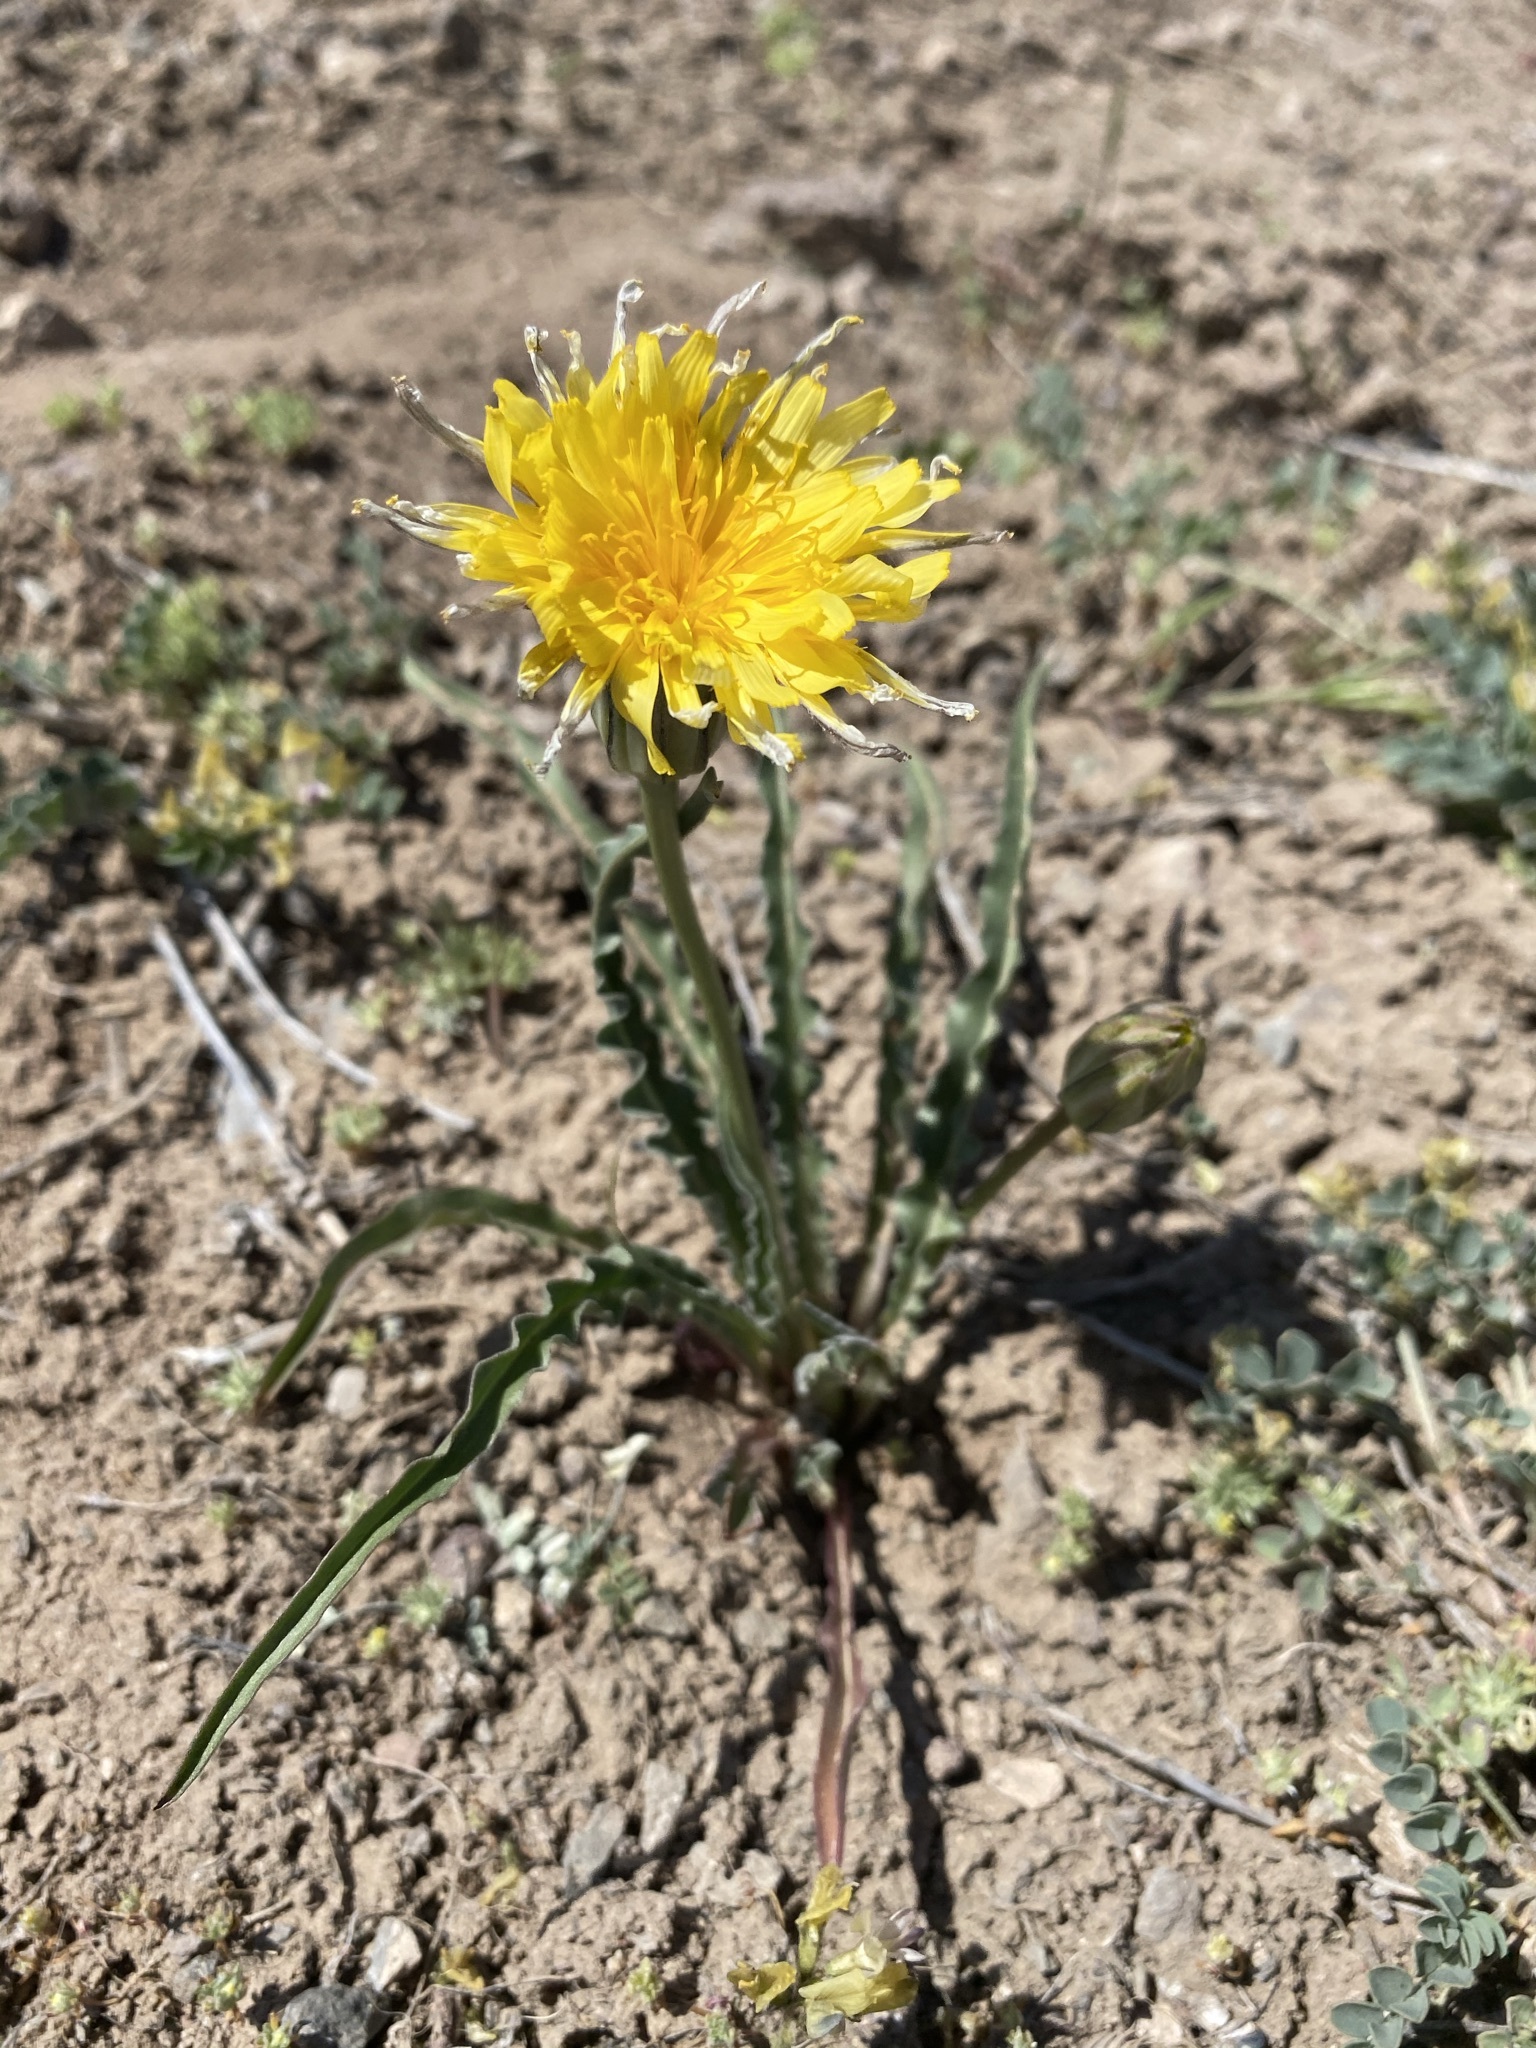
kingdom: Plantae
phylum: Tracheophyta
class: Magnoliopsida
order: Asterales
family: Asteraceae
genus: Microseris
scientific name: Microseris troximoides
